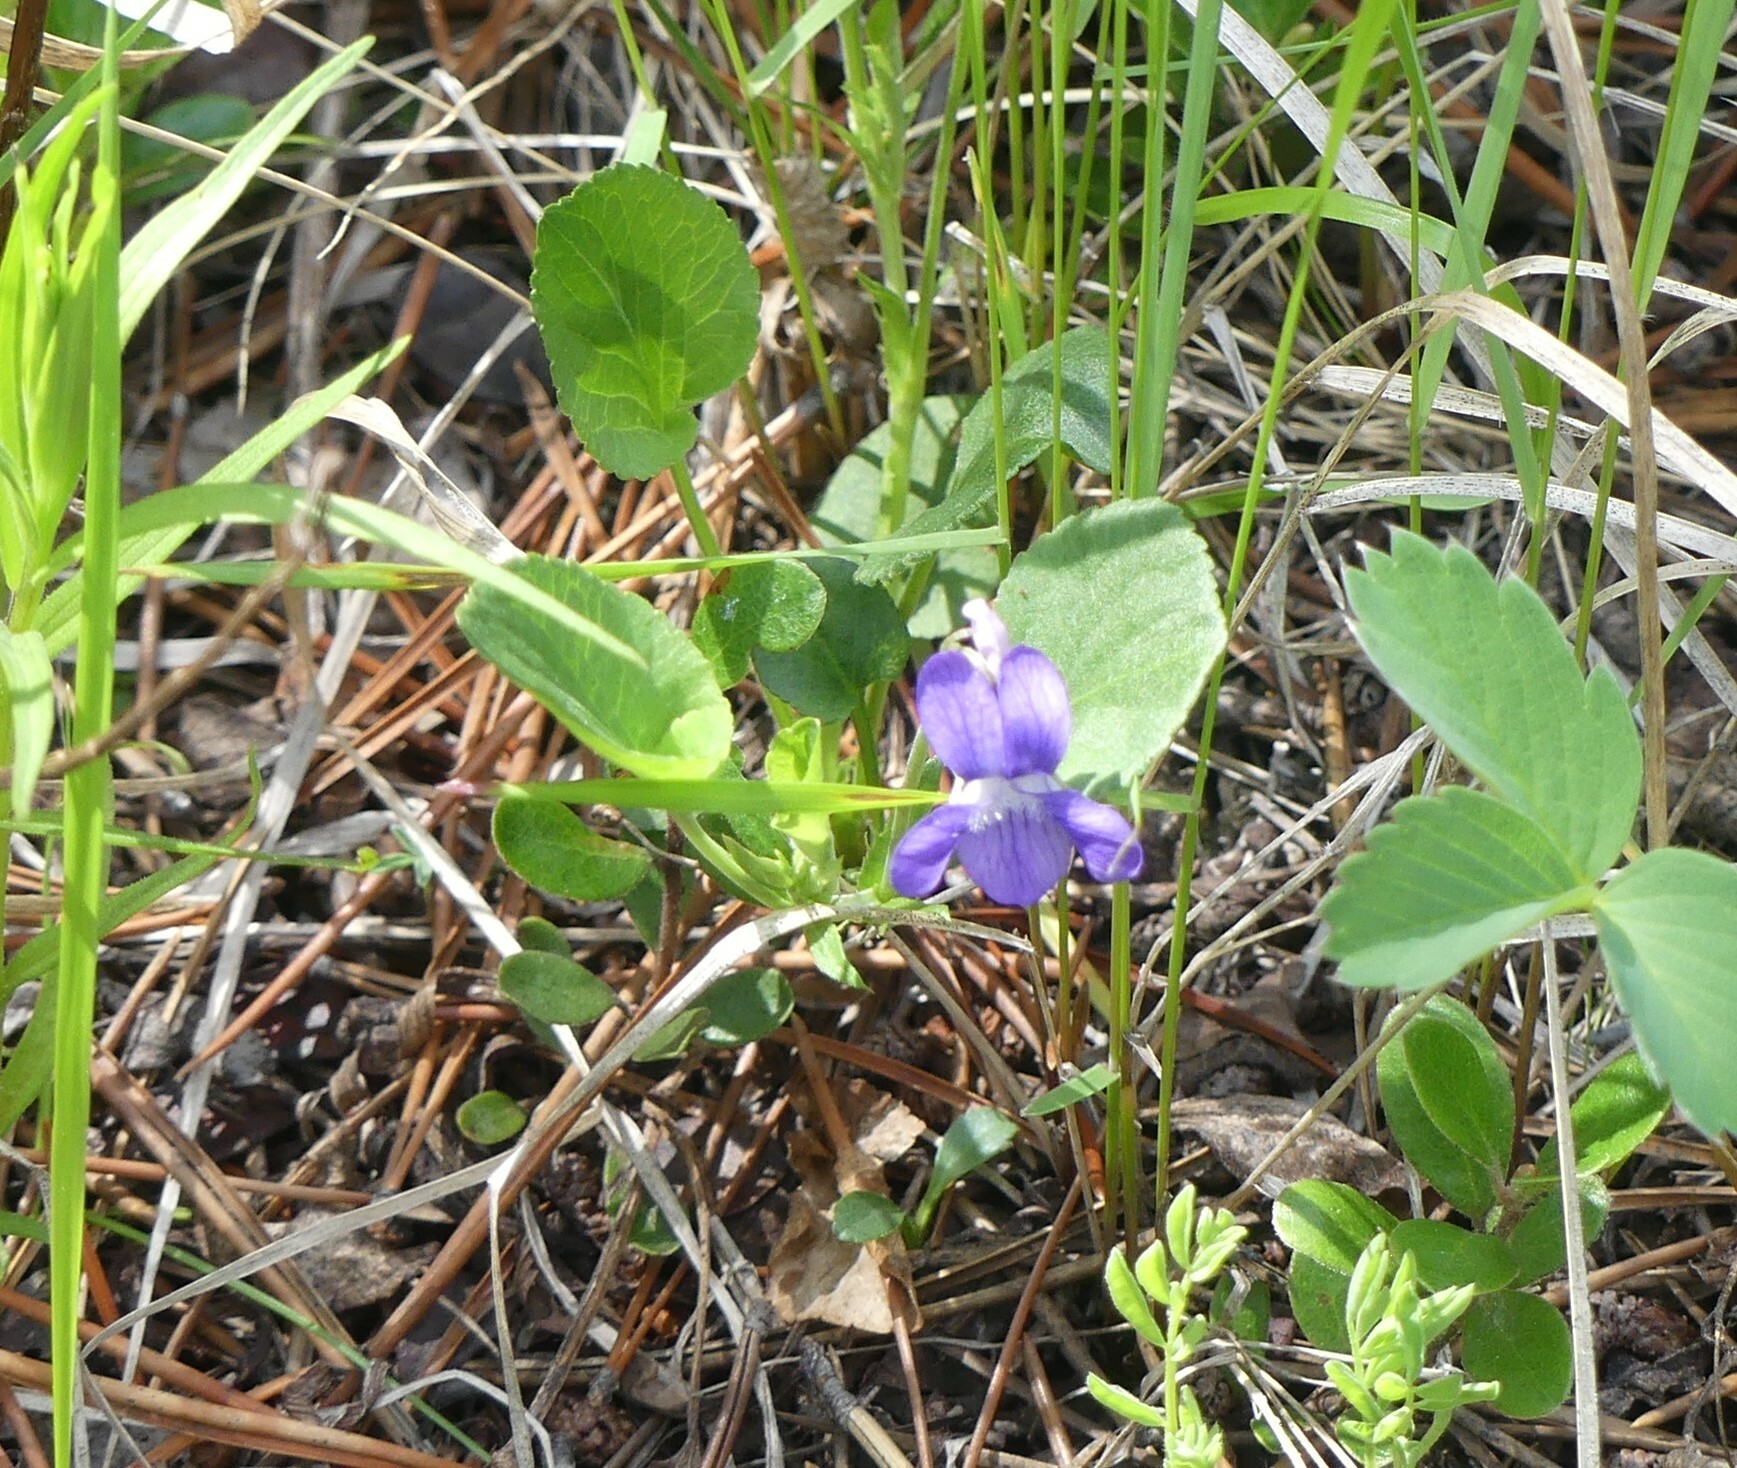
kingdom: Plantae
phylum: Tracheophyta
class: Magnoliopsida
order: Malpighiales
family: Violaceae
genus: Viola
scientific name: Viola adunca
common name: Sand violet
